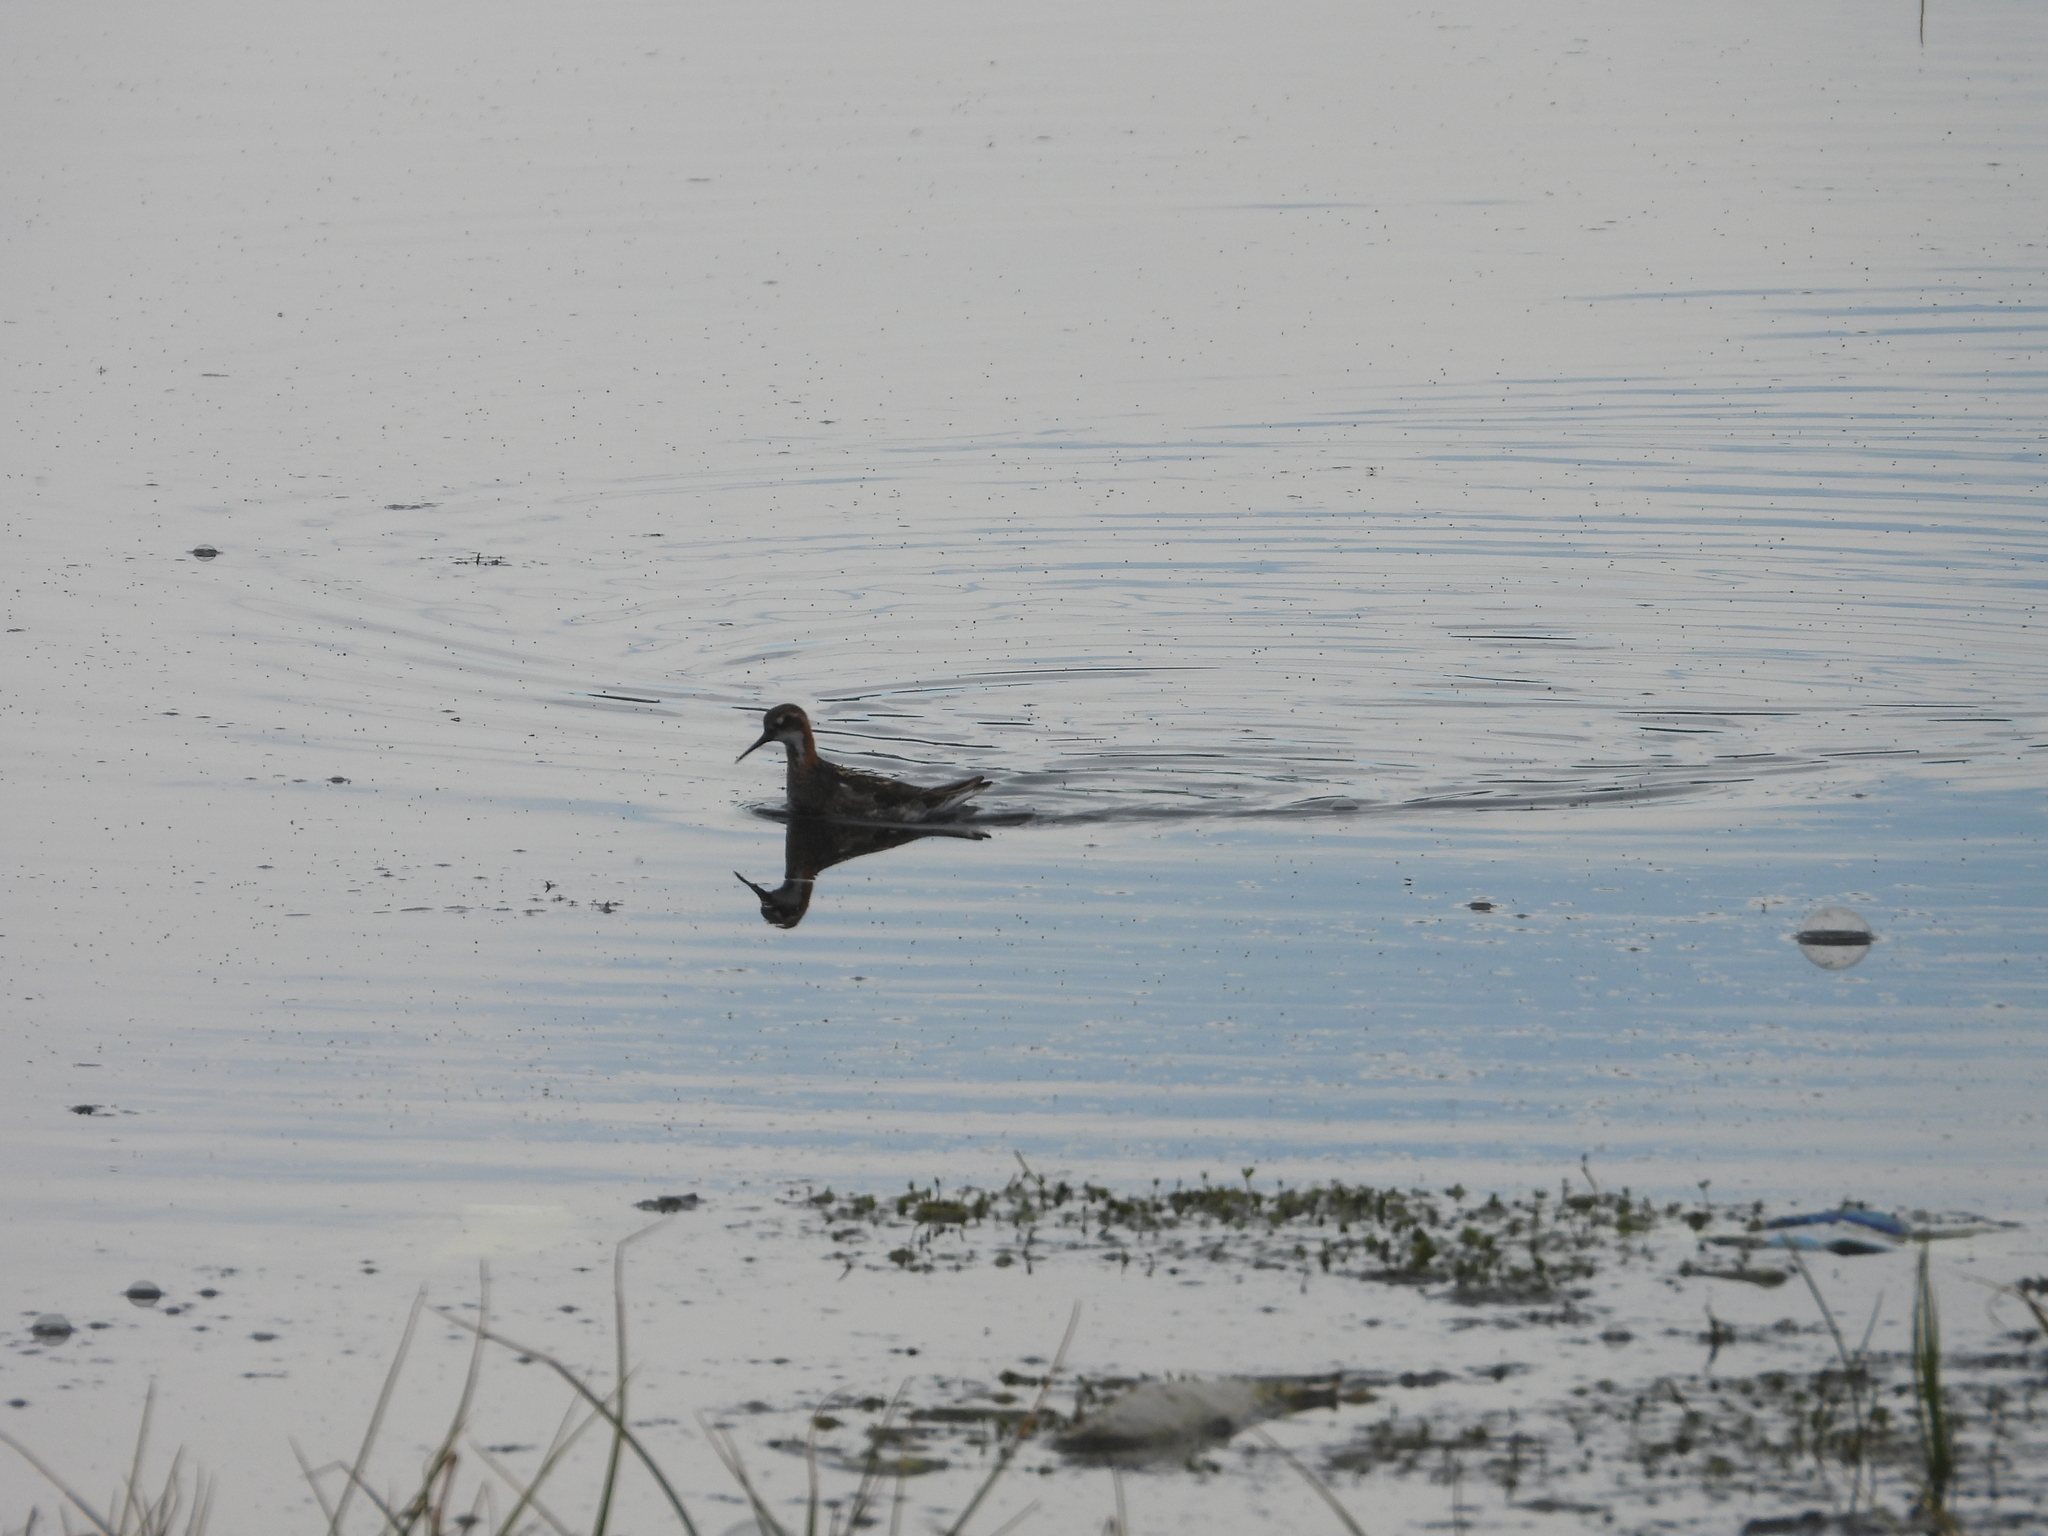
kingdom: Animalia
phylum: Chordata
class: Aves
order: Charadriiformes
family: Scolopacidae
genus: Phalaropus
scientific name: Phalaropus lobatus
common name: Red-necked phalarope
